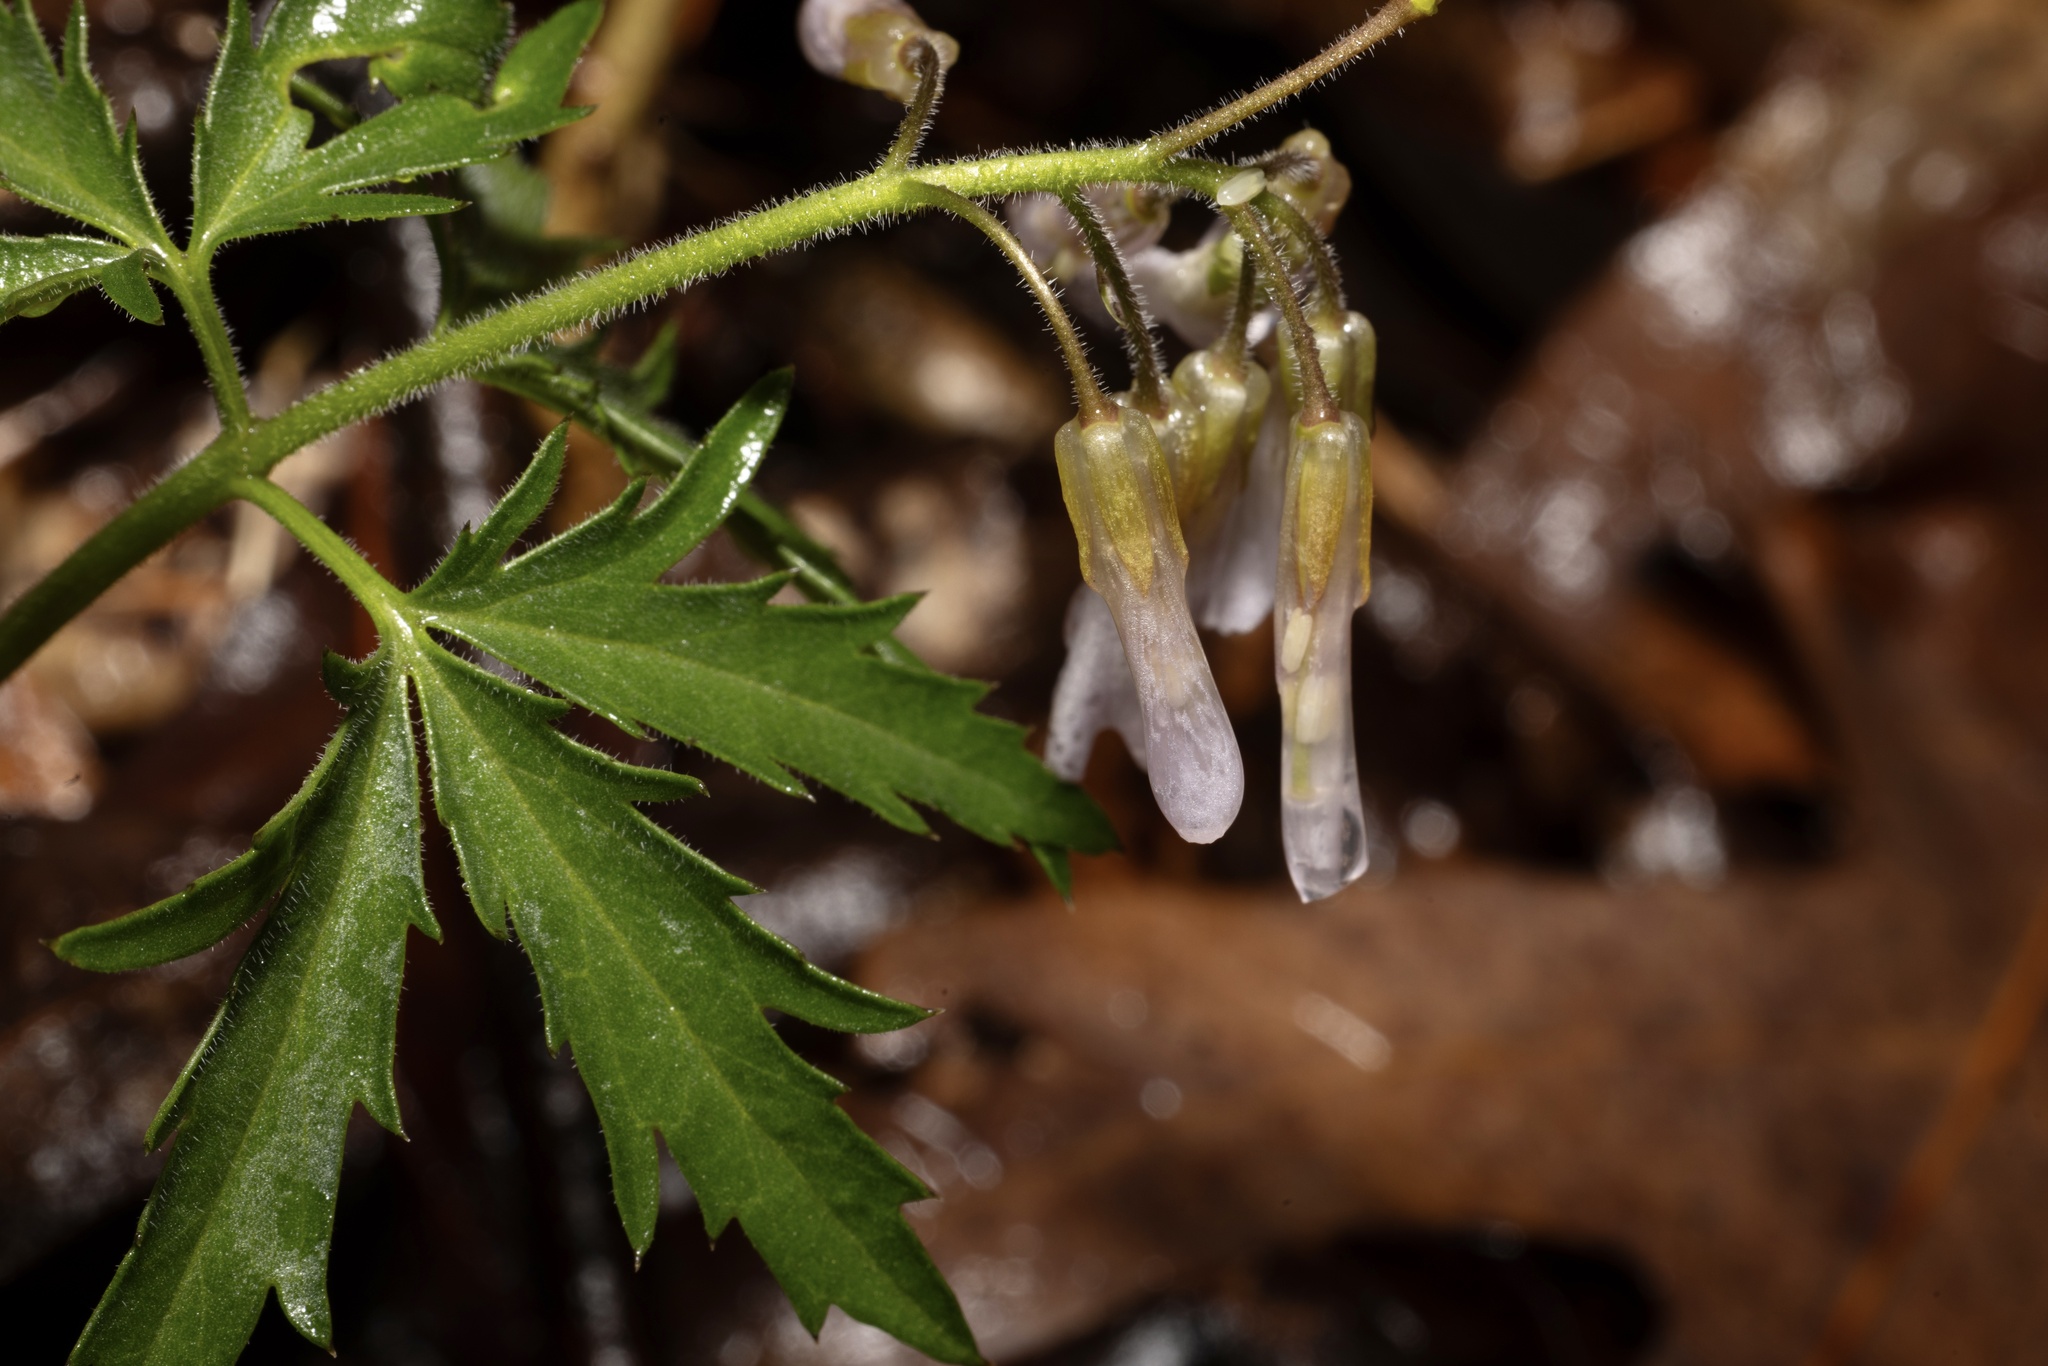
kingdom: Plantae
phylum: Tracheophyta
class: Magnoliopsida
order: Brassicales
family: Brassicaceae
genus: Cardamine
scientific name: Cardamine concatenata
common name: Cut-leaf toothcup
